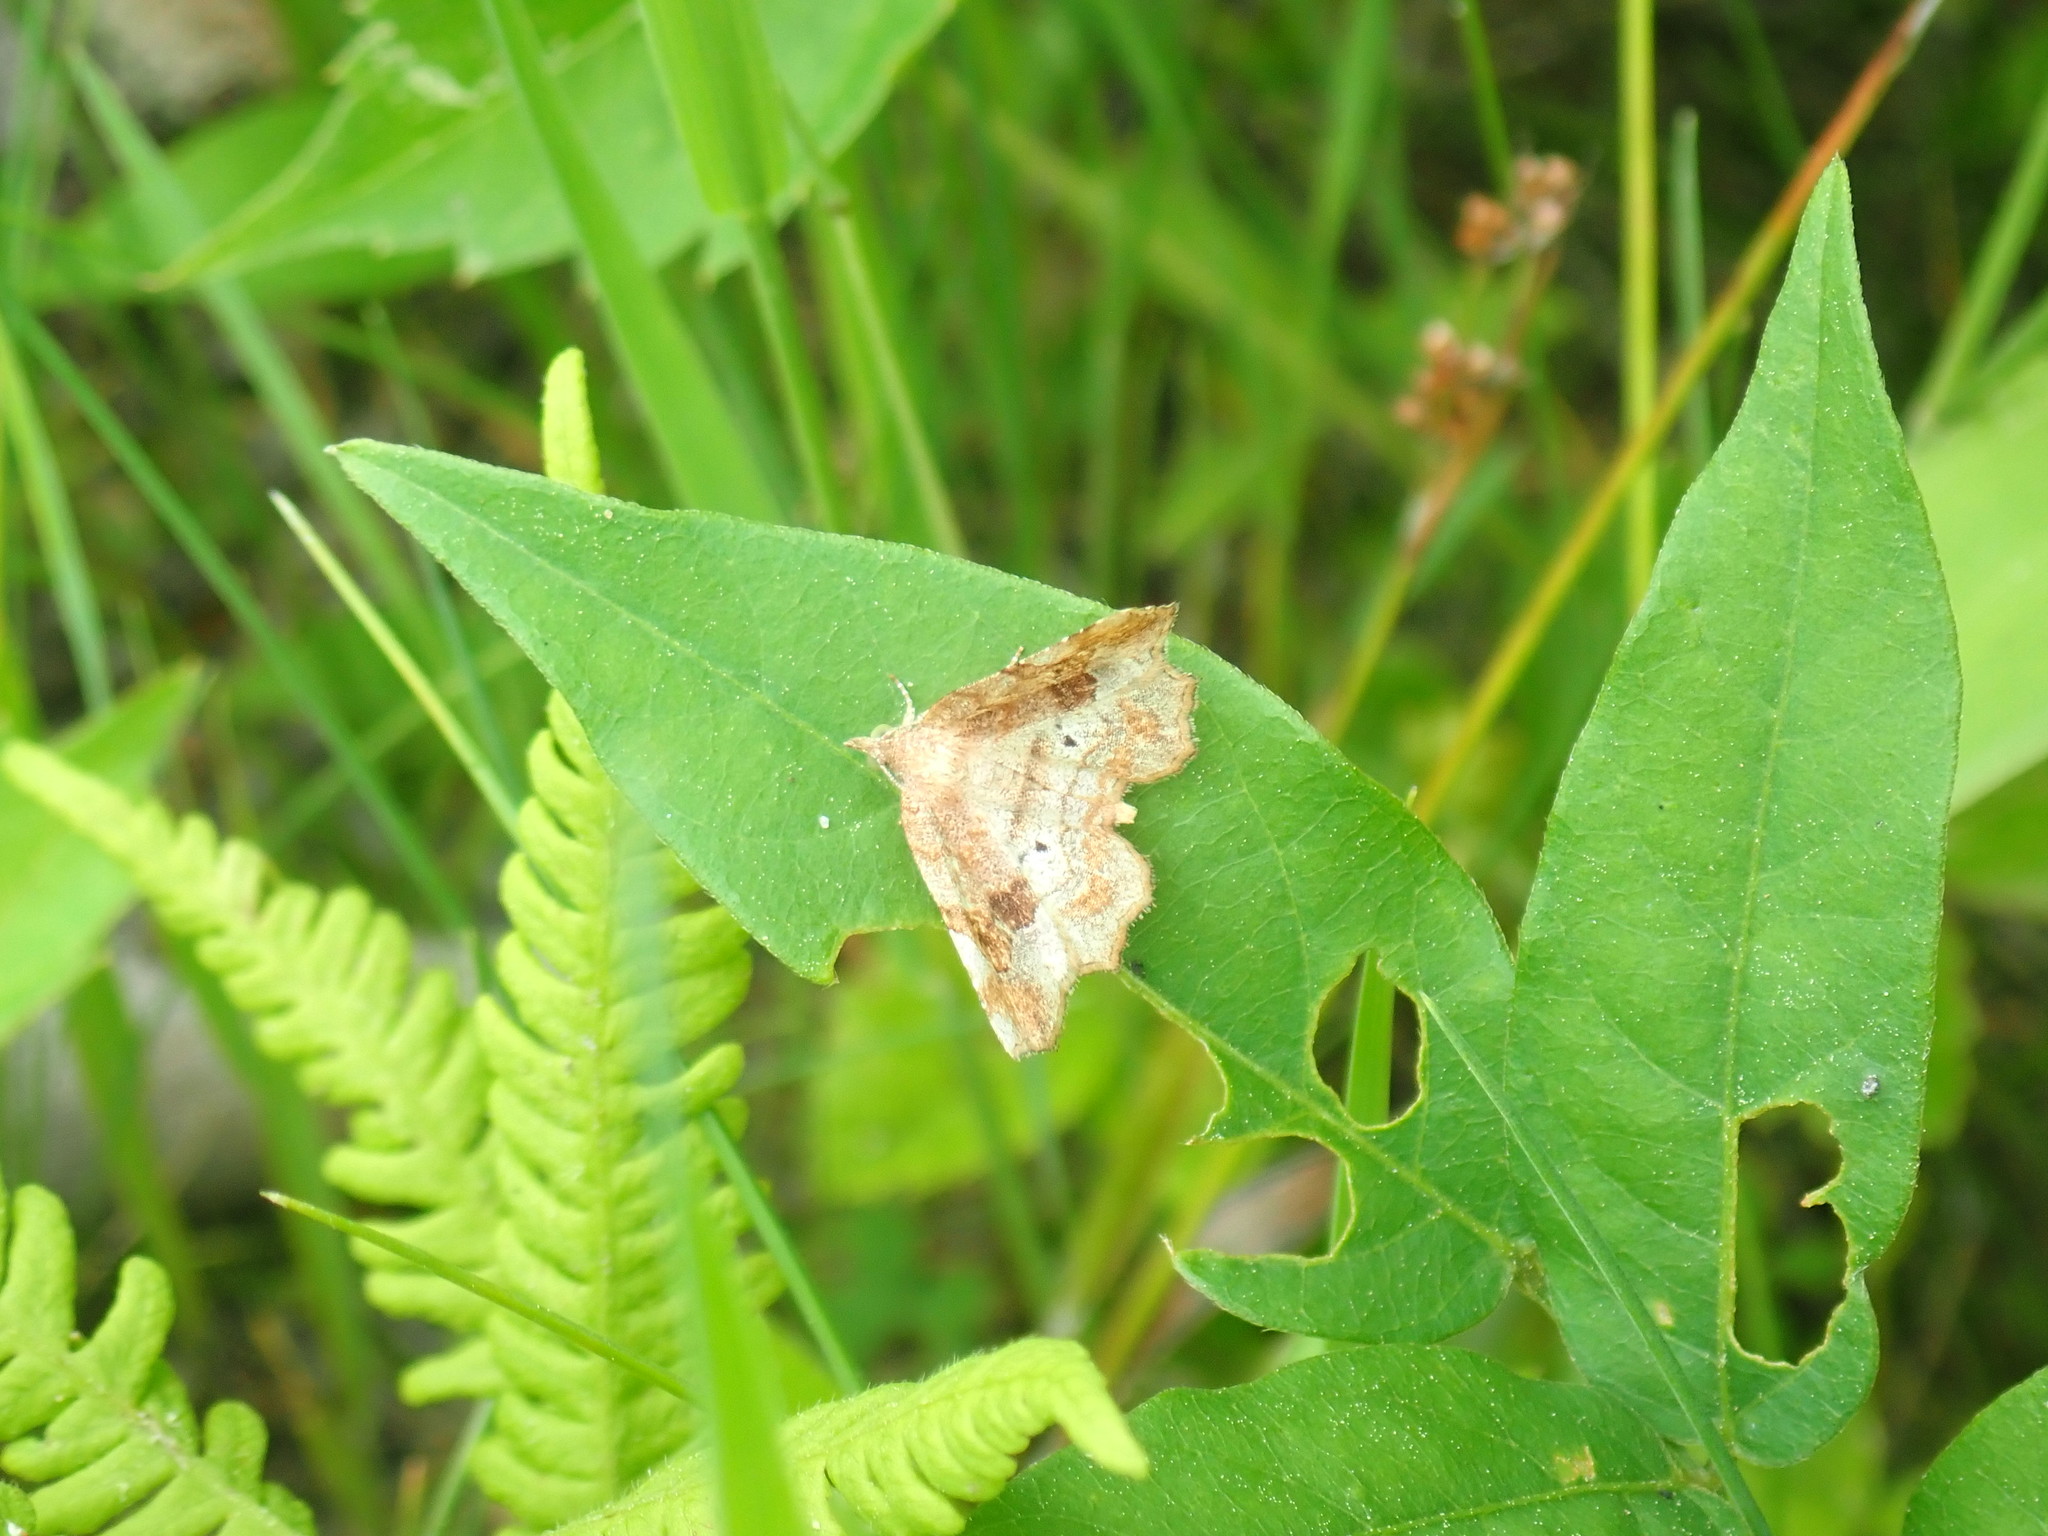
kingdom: Animalia
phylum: Arthropoda
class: Insecta
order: Lepidoptera
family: Erebidae
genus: Pangrapta
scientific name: Pangrapta decoralis
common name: Decorated owlet
